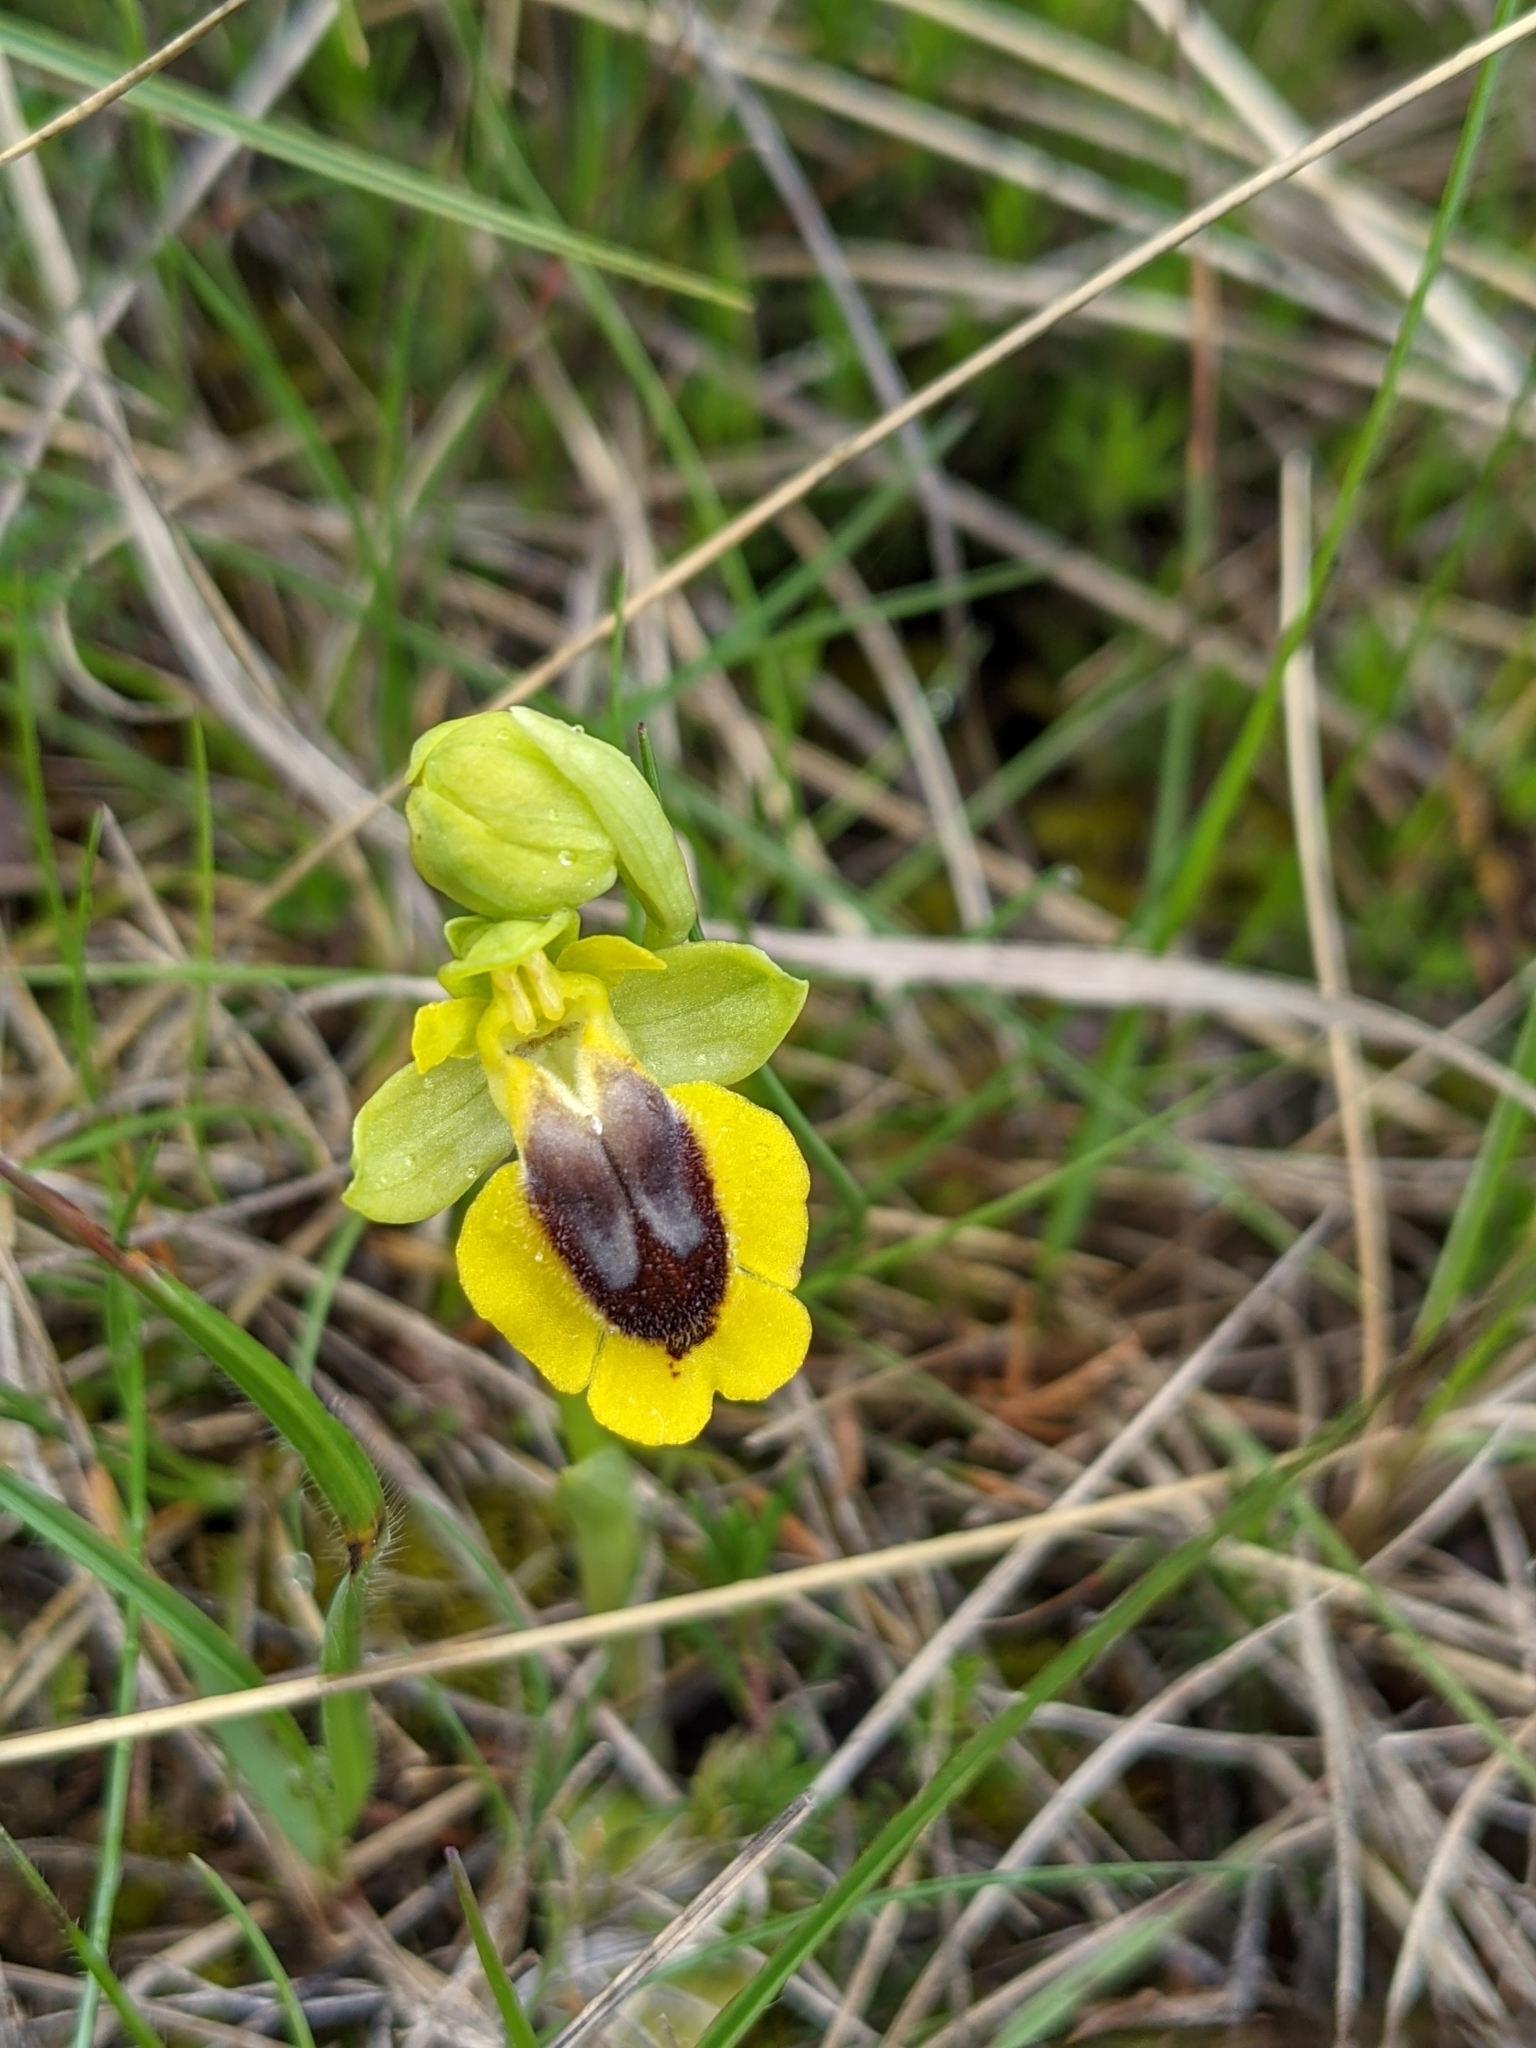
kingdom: Plantae
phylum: Tracheophyta
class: Liliopsida
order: Asparagales
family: Orchidaceae
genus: Ophrys
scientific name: Ophrys lutea
